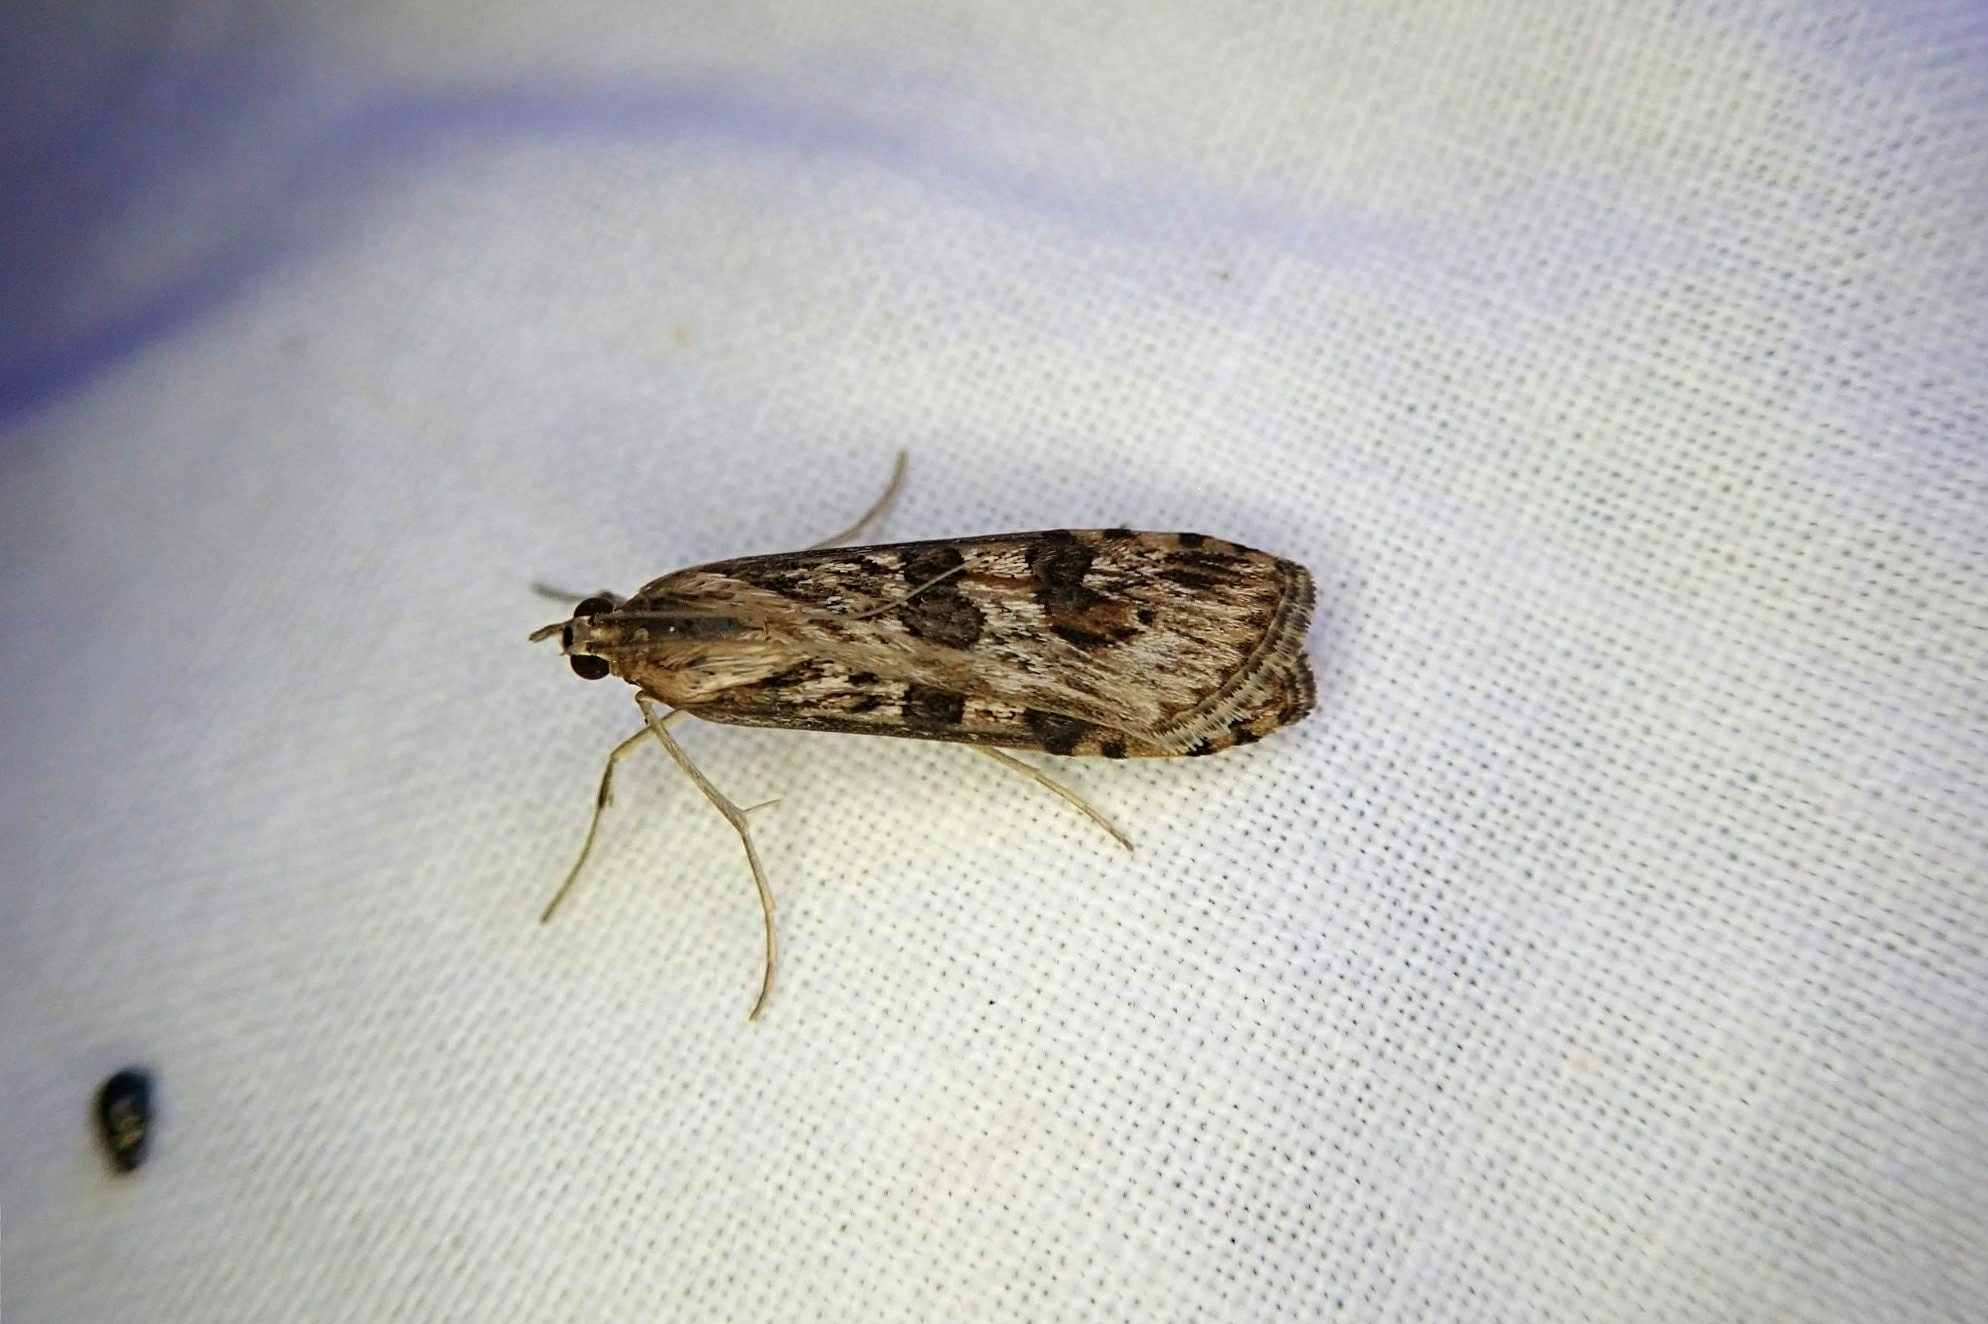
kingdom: Animalia
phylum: Arthropoda
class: Insecta
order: Lepidoptera
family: Crambidae
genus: Nomophila
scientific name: Nomophila nearctica
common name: American rush veneer
